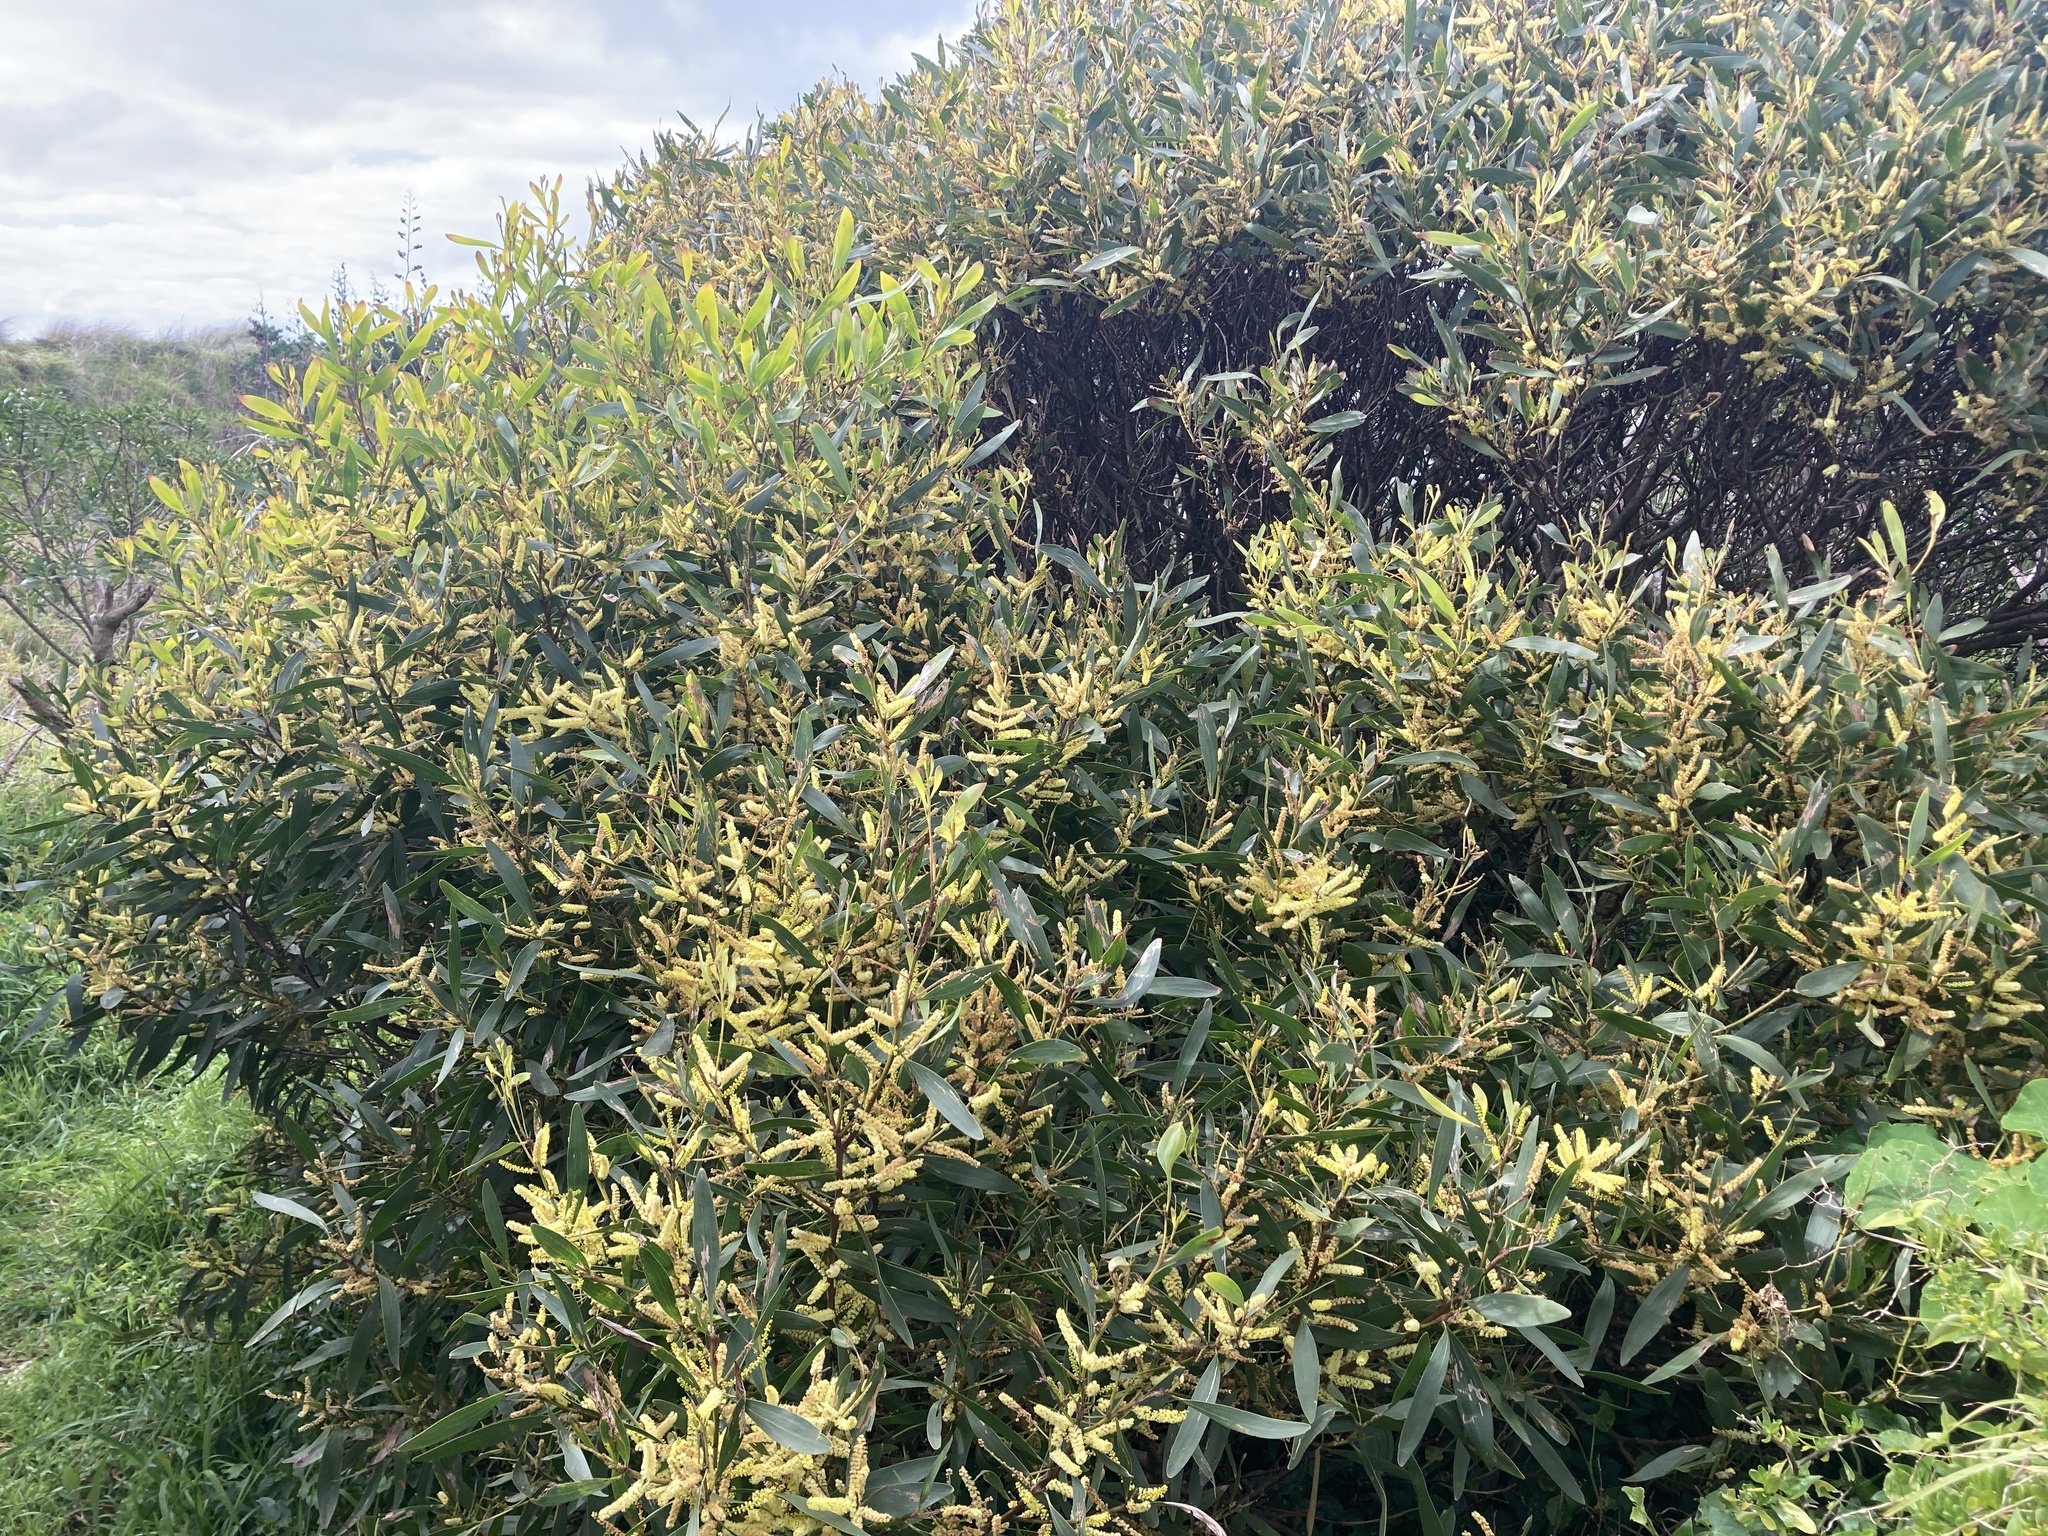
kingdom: Plantae
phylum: Tracheophyta
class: Magnoliopsida
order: Fabales
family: Fabaceae
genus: Acacia
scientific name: Acacia longifolia
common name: Sydney golden wattle
